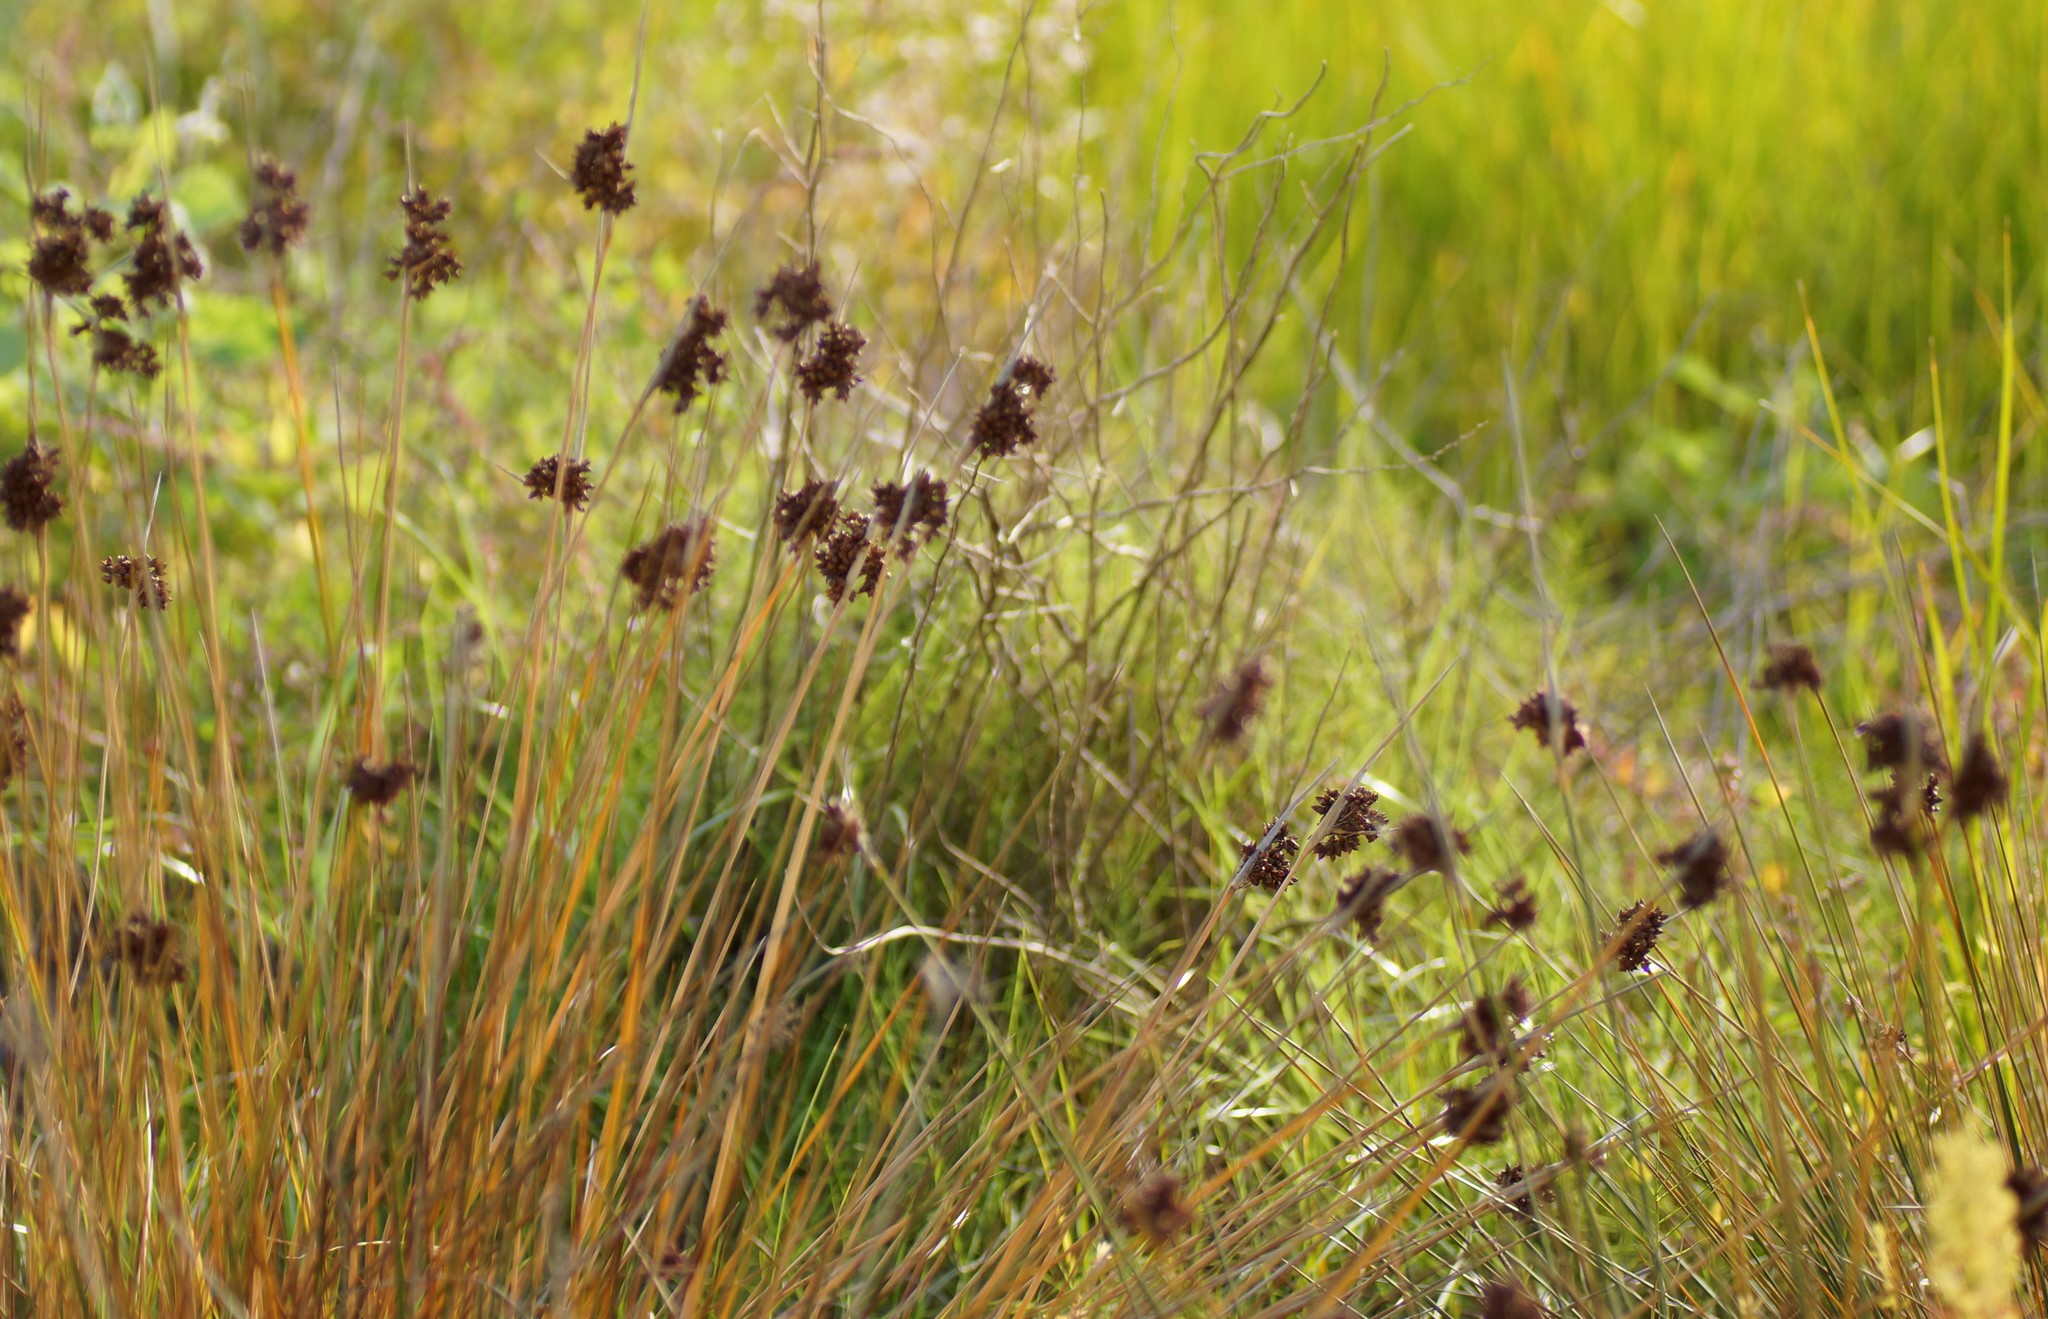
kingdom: Plantae
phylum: Tracheophyta
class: Liliopsida
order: Poales
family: Juncaceae
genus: Juncus
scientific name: Juncus acutus
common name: Sharp rush
